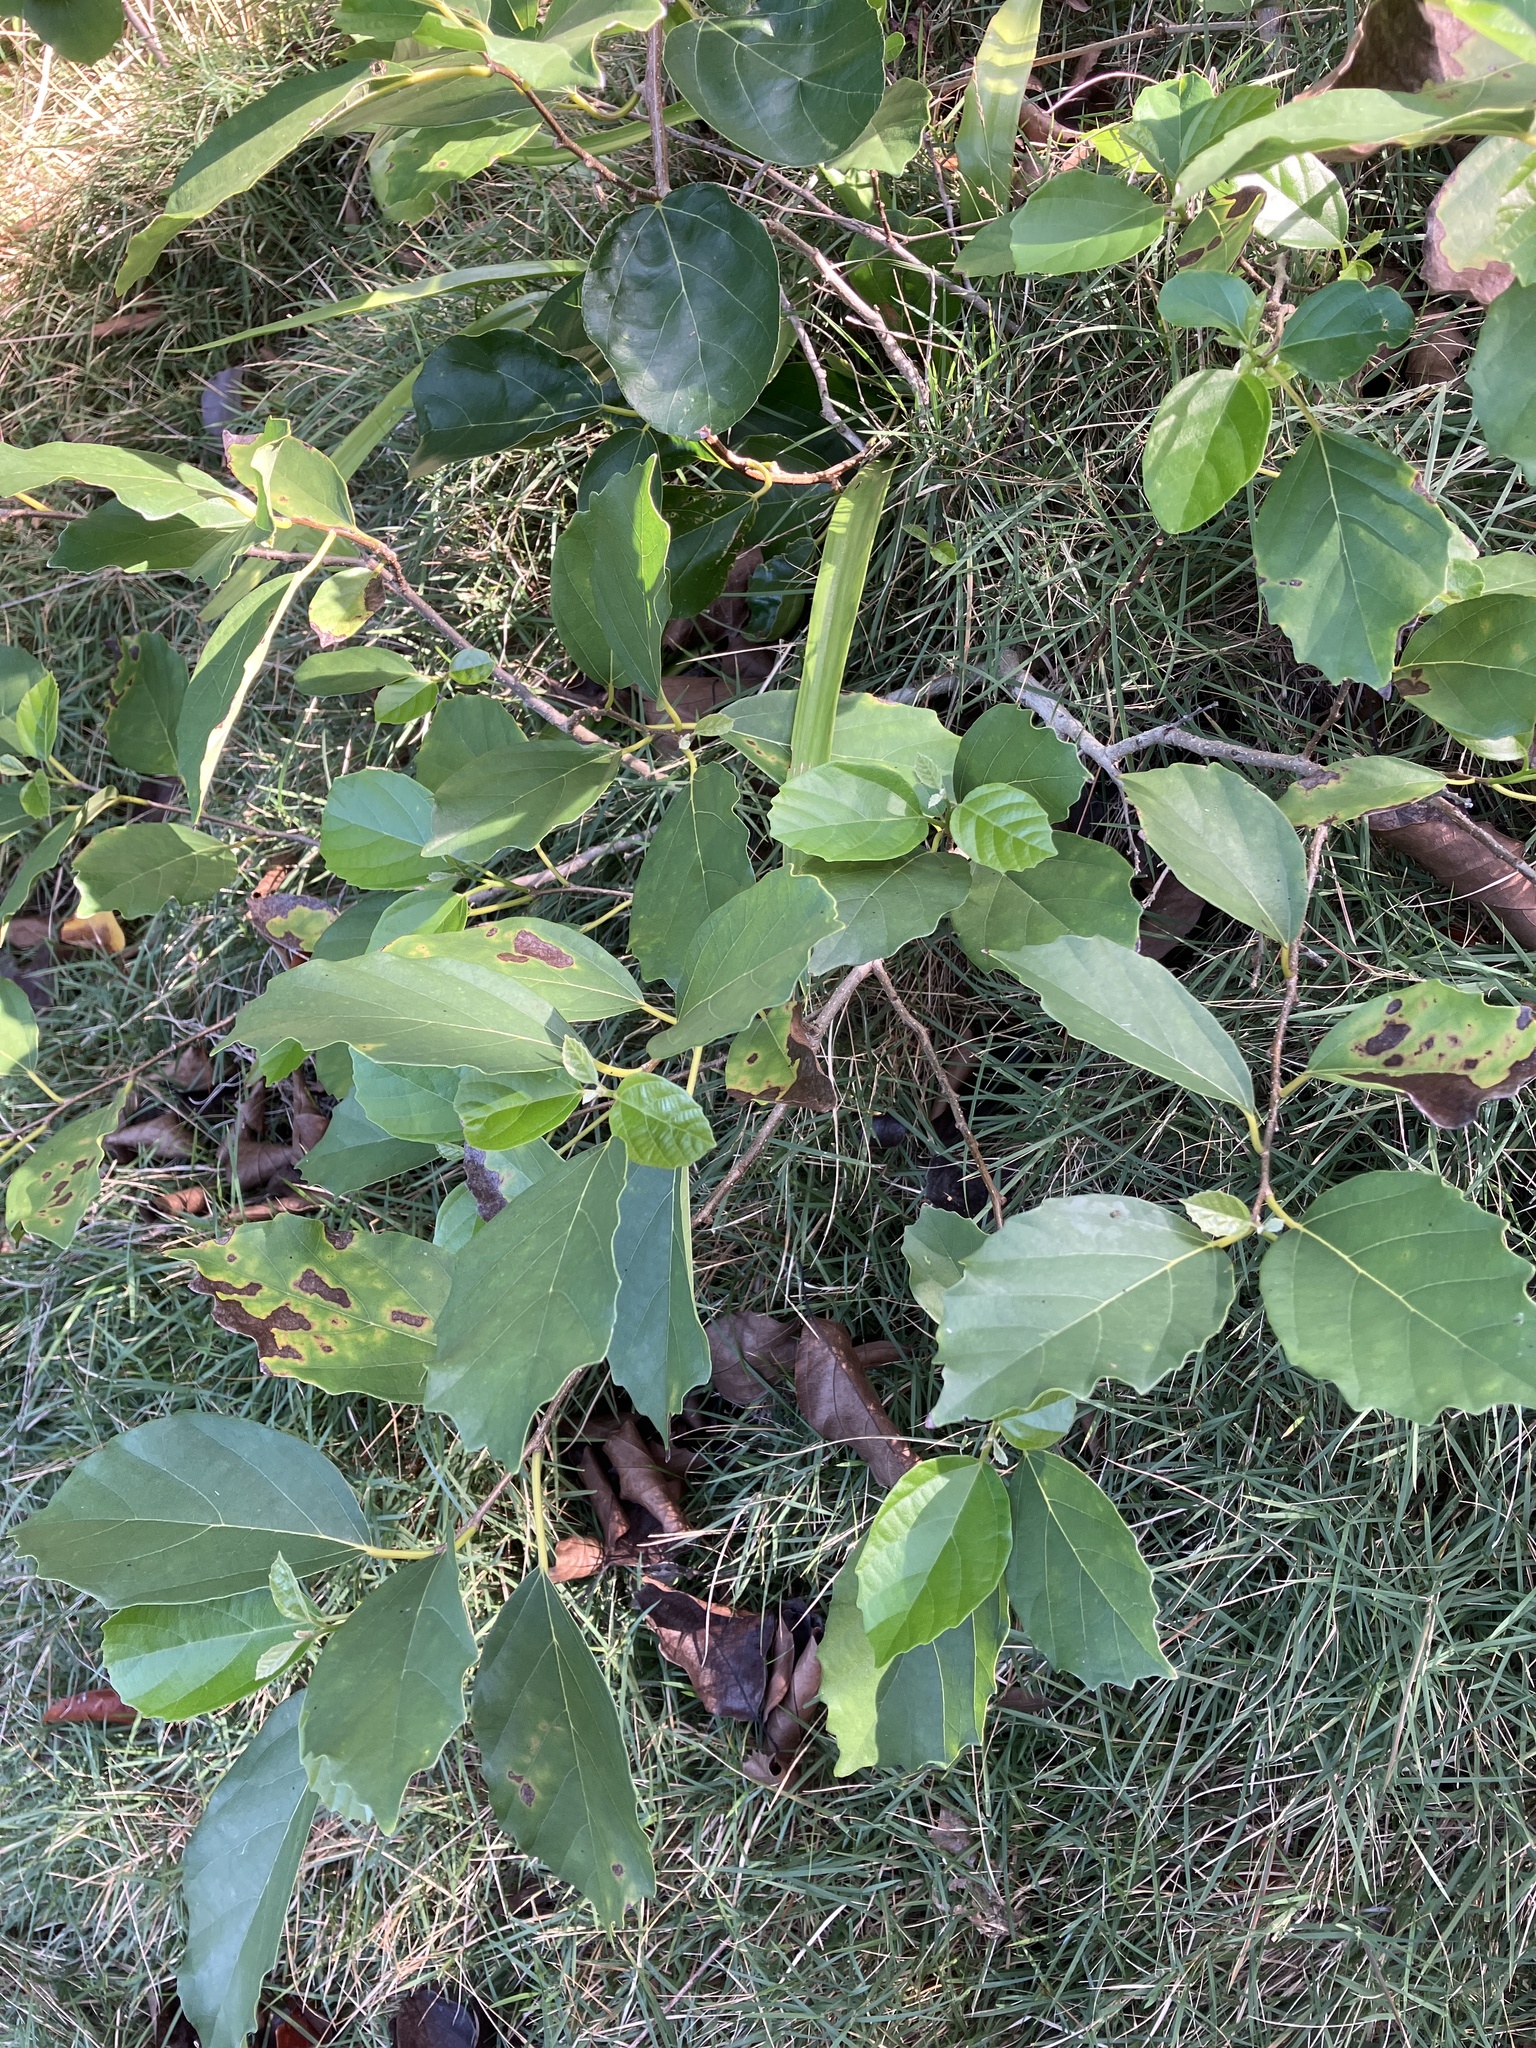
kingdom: Plantae
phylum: Tracheophyta
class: Magnoliopsida
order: Boraginales
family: Cordiaceae
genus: Cordia
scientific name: Cordia dichotoma
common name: Fragrant manjack
